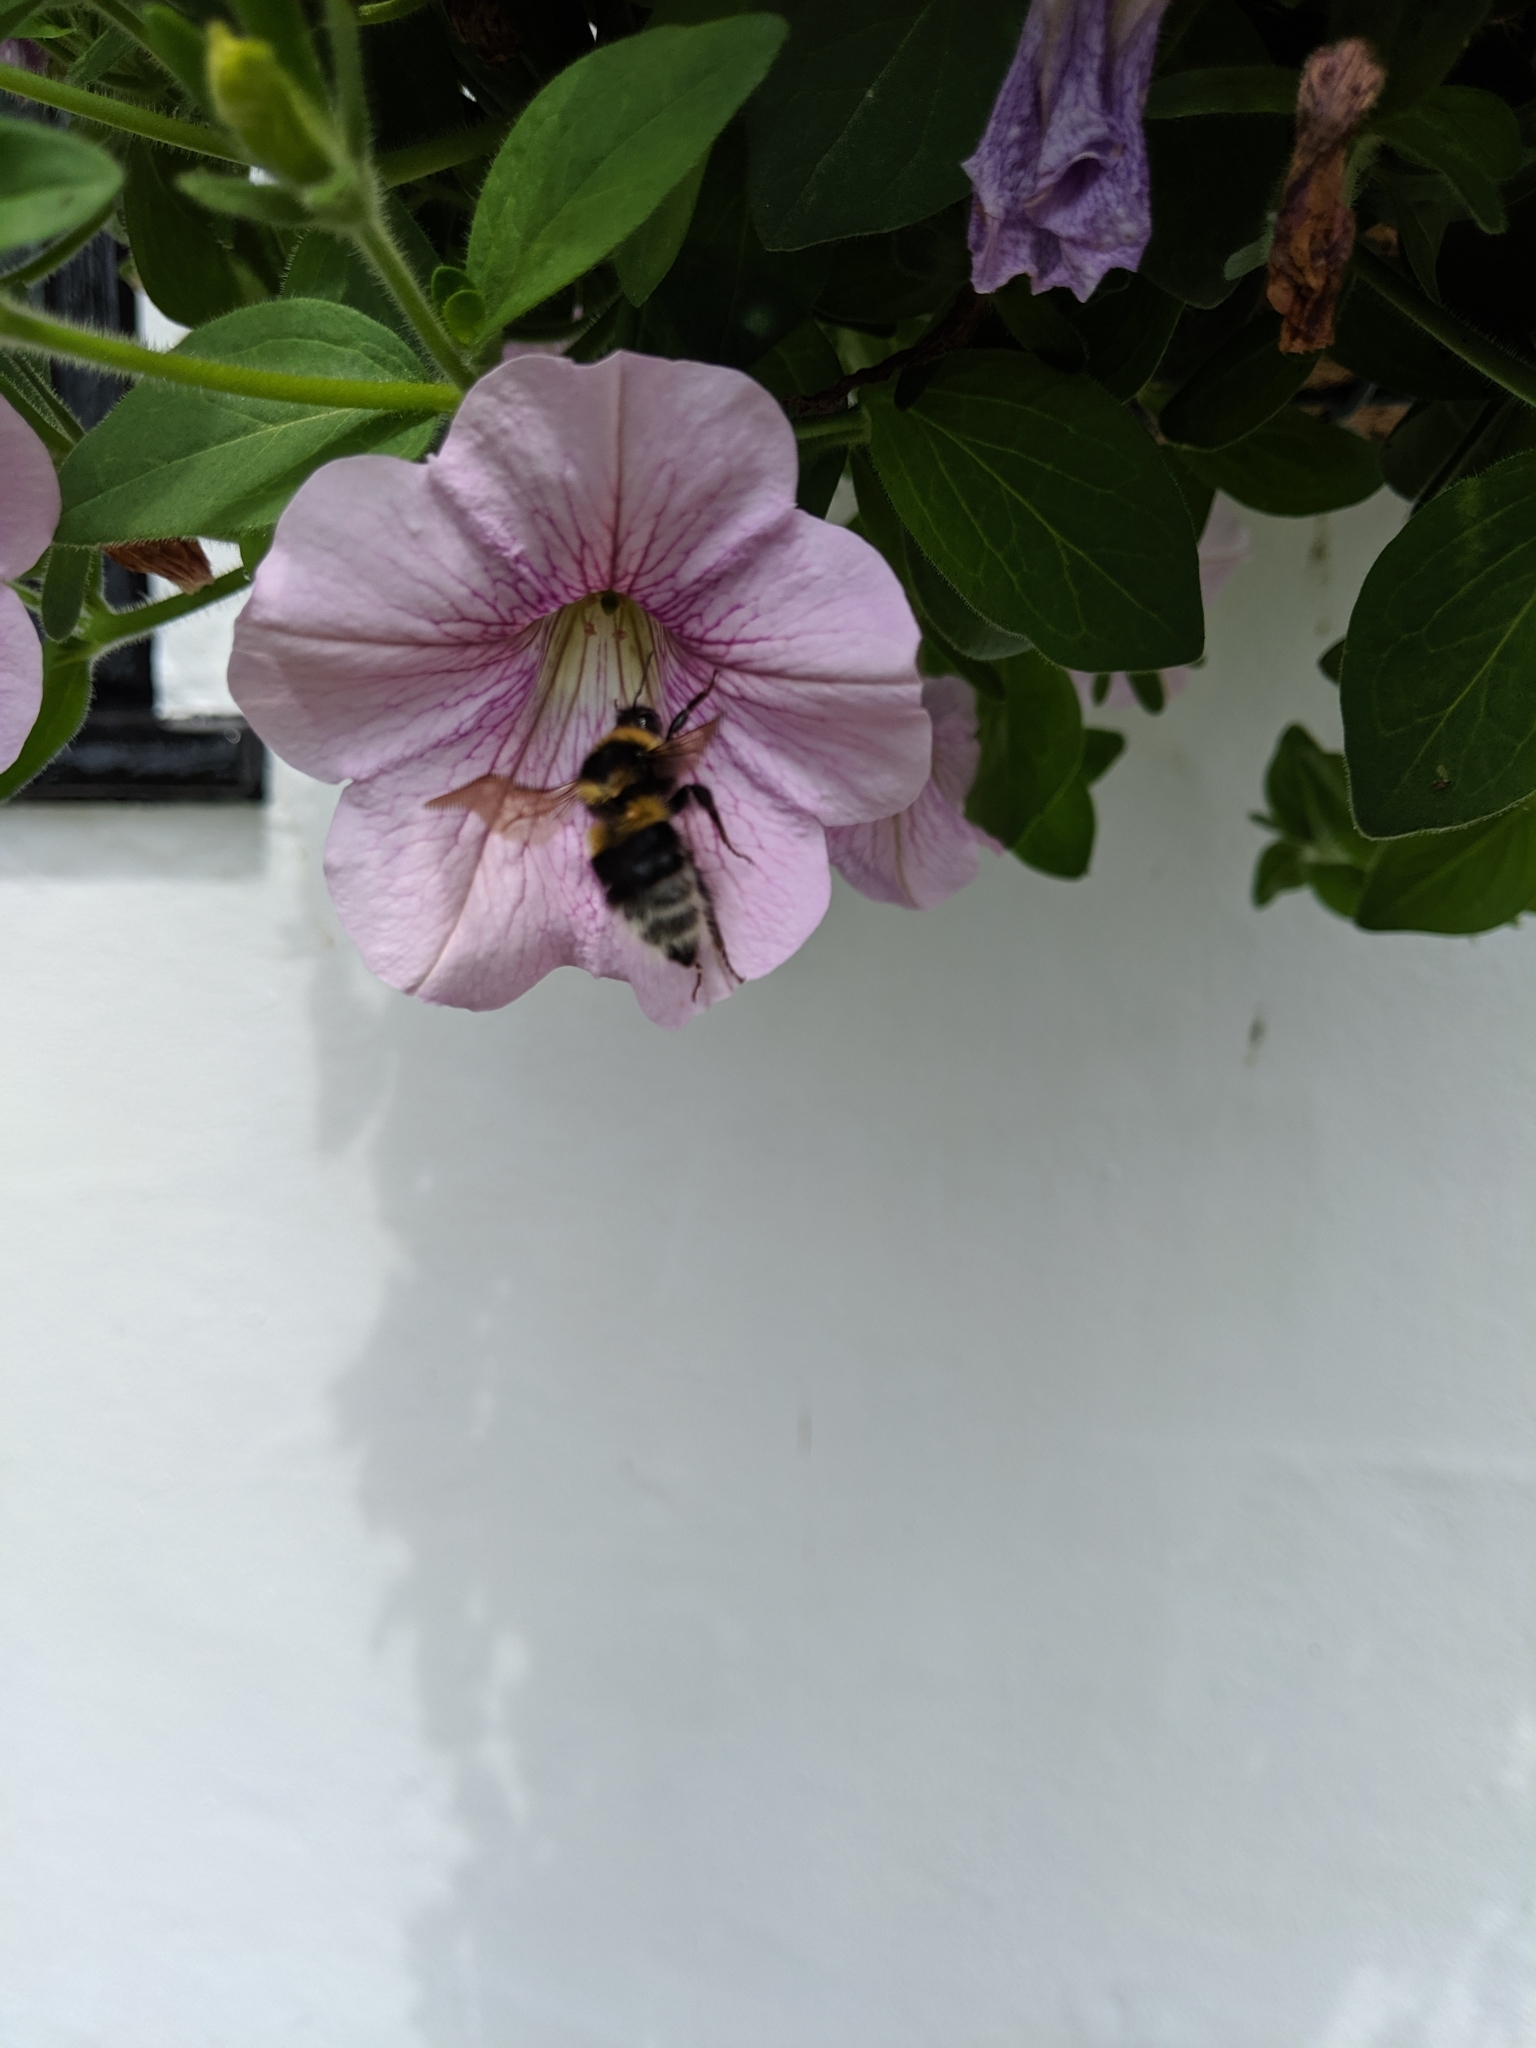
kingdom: Animalia
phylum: Arthropoda
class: Insecta
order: Hymenoptera
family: Apidae
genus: Bombus
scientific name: Bombus
